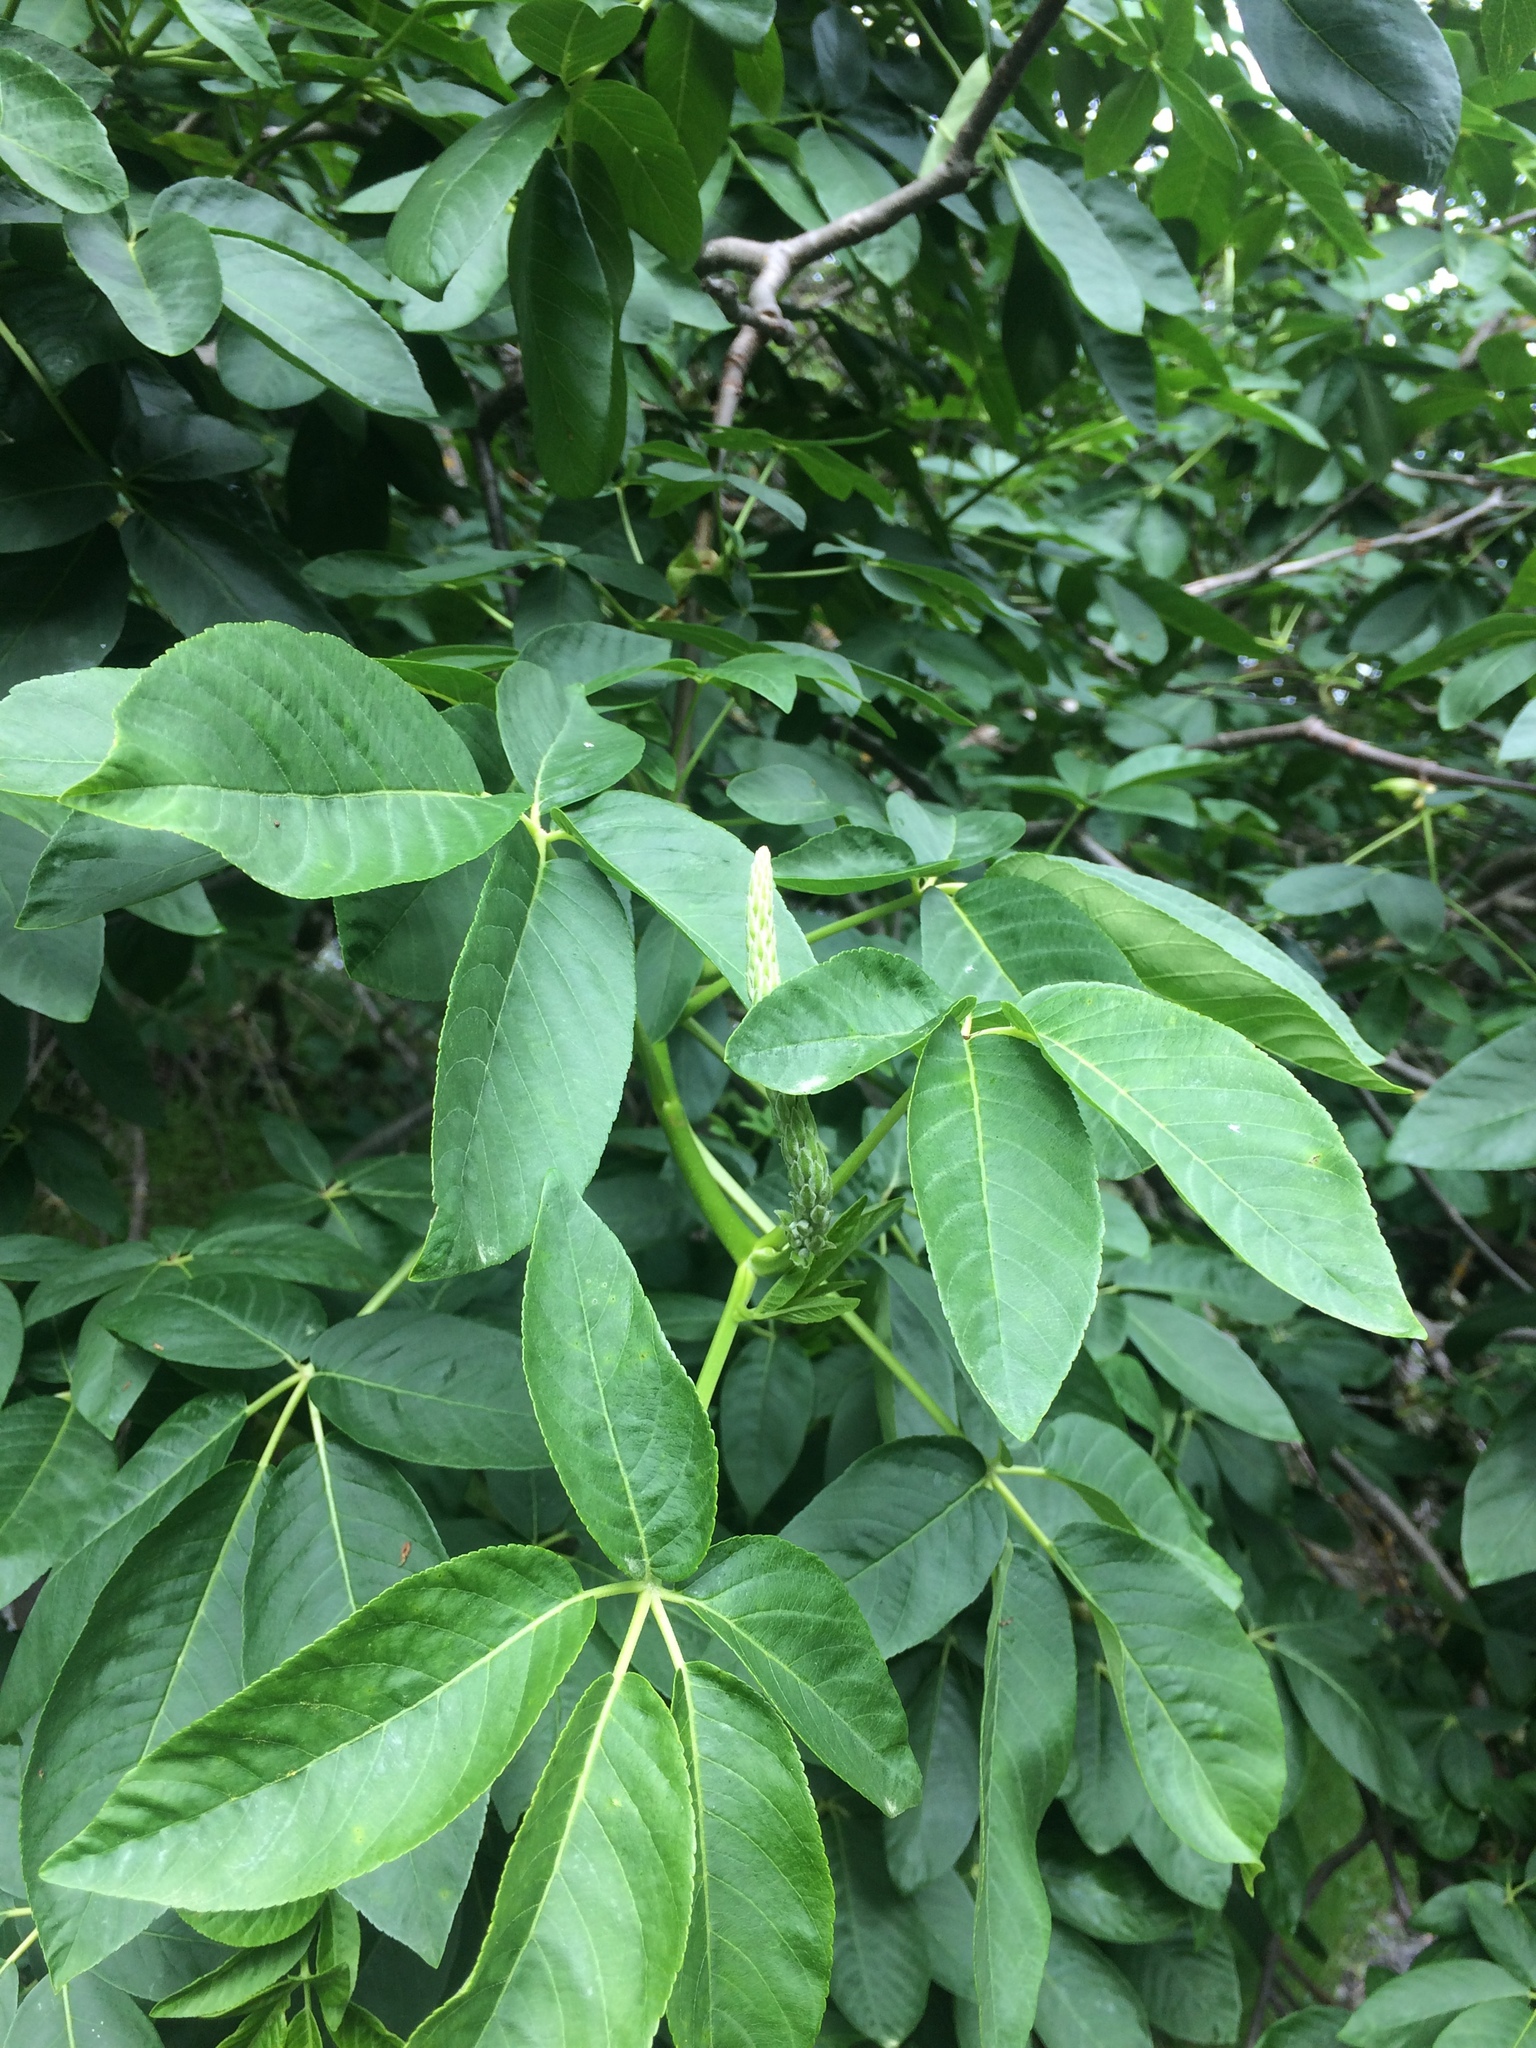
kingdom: Plantae
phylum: Tracheophyta
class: Magnoliopsida
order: Sapindales
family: Sapindaceae
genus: Aesculus
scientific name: Aesculus californica
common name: California buckeye
